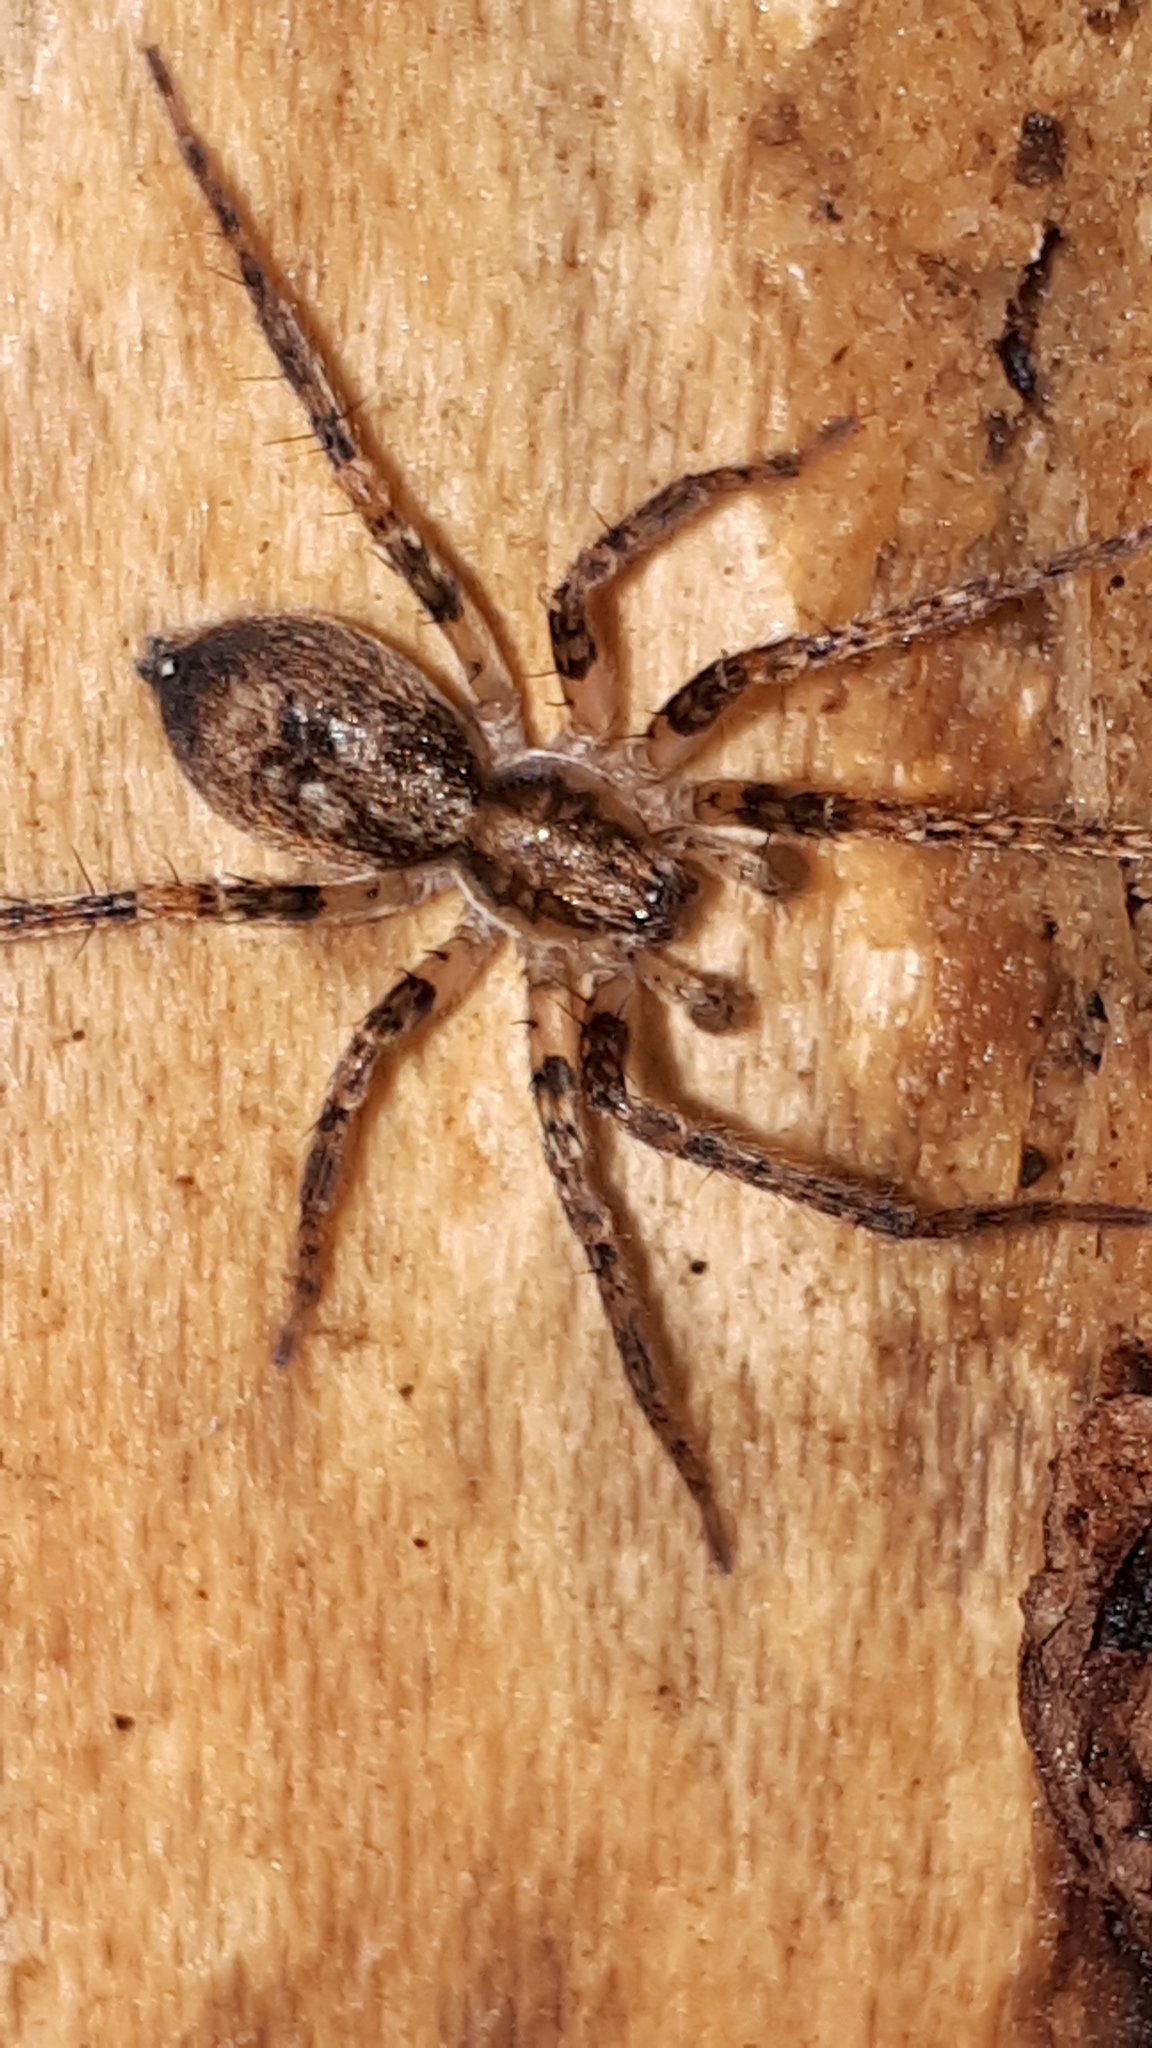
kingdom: Animalia
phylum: Arthropoda
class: Arachnida
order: Araneae
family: Anyphaenidae
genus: Anyphaena
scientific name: Anyphaena accentuata
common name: Buzzing spider
